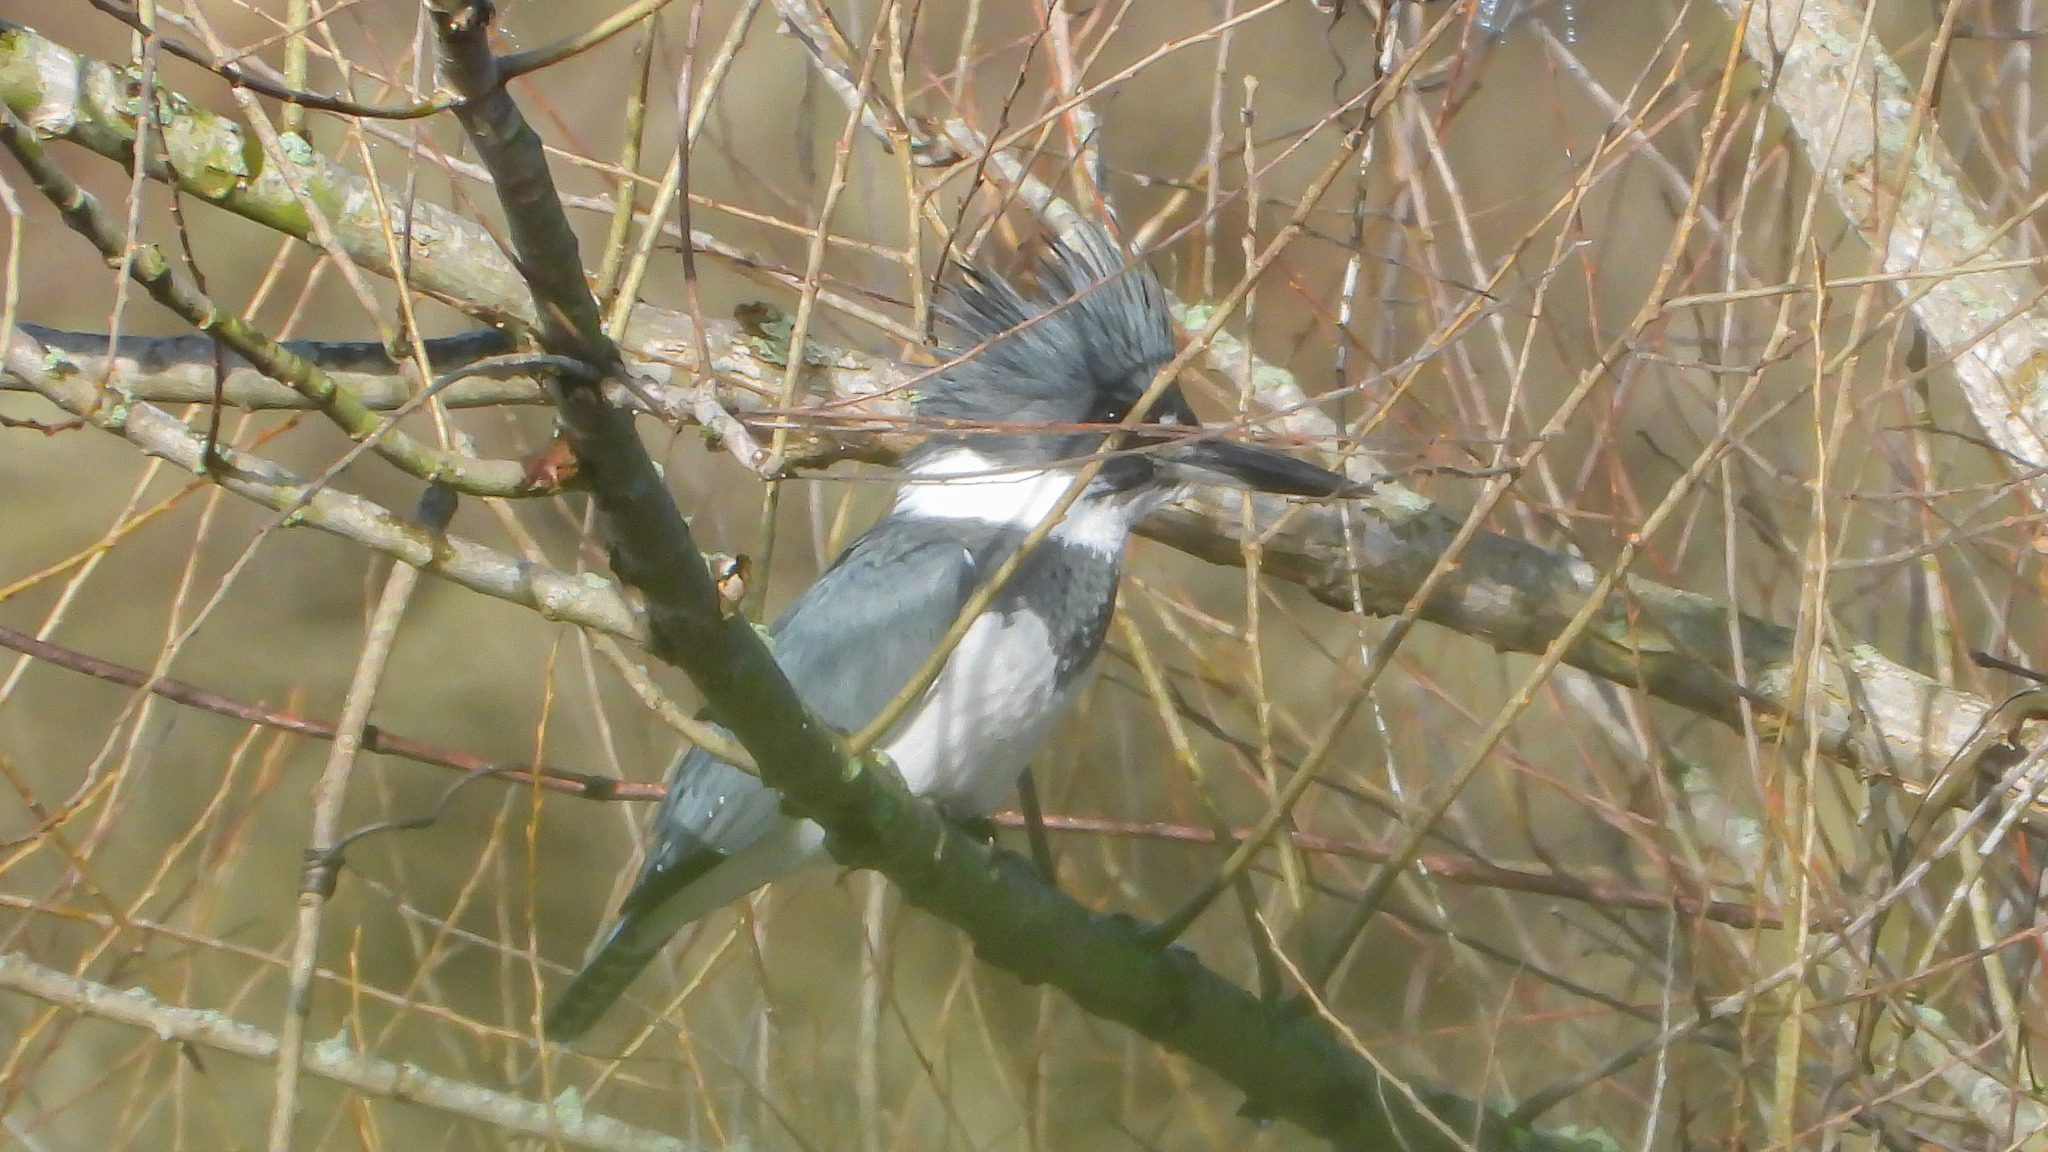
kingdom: Animalia
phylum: Chordata
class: Aves
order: Coraciiformes
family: Alcedinidae
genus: Megaceryle
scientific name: Megaceryle alcyon
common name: Belted kingfisher
